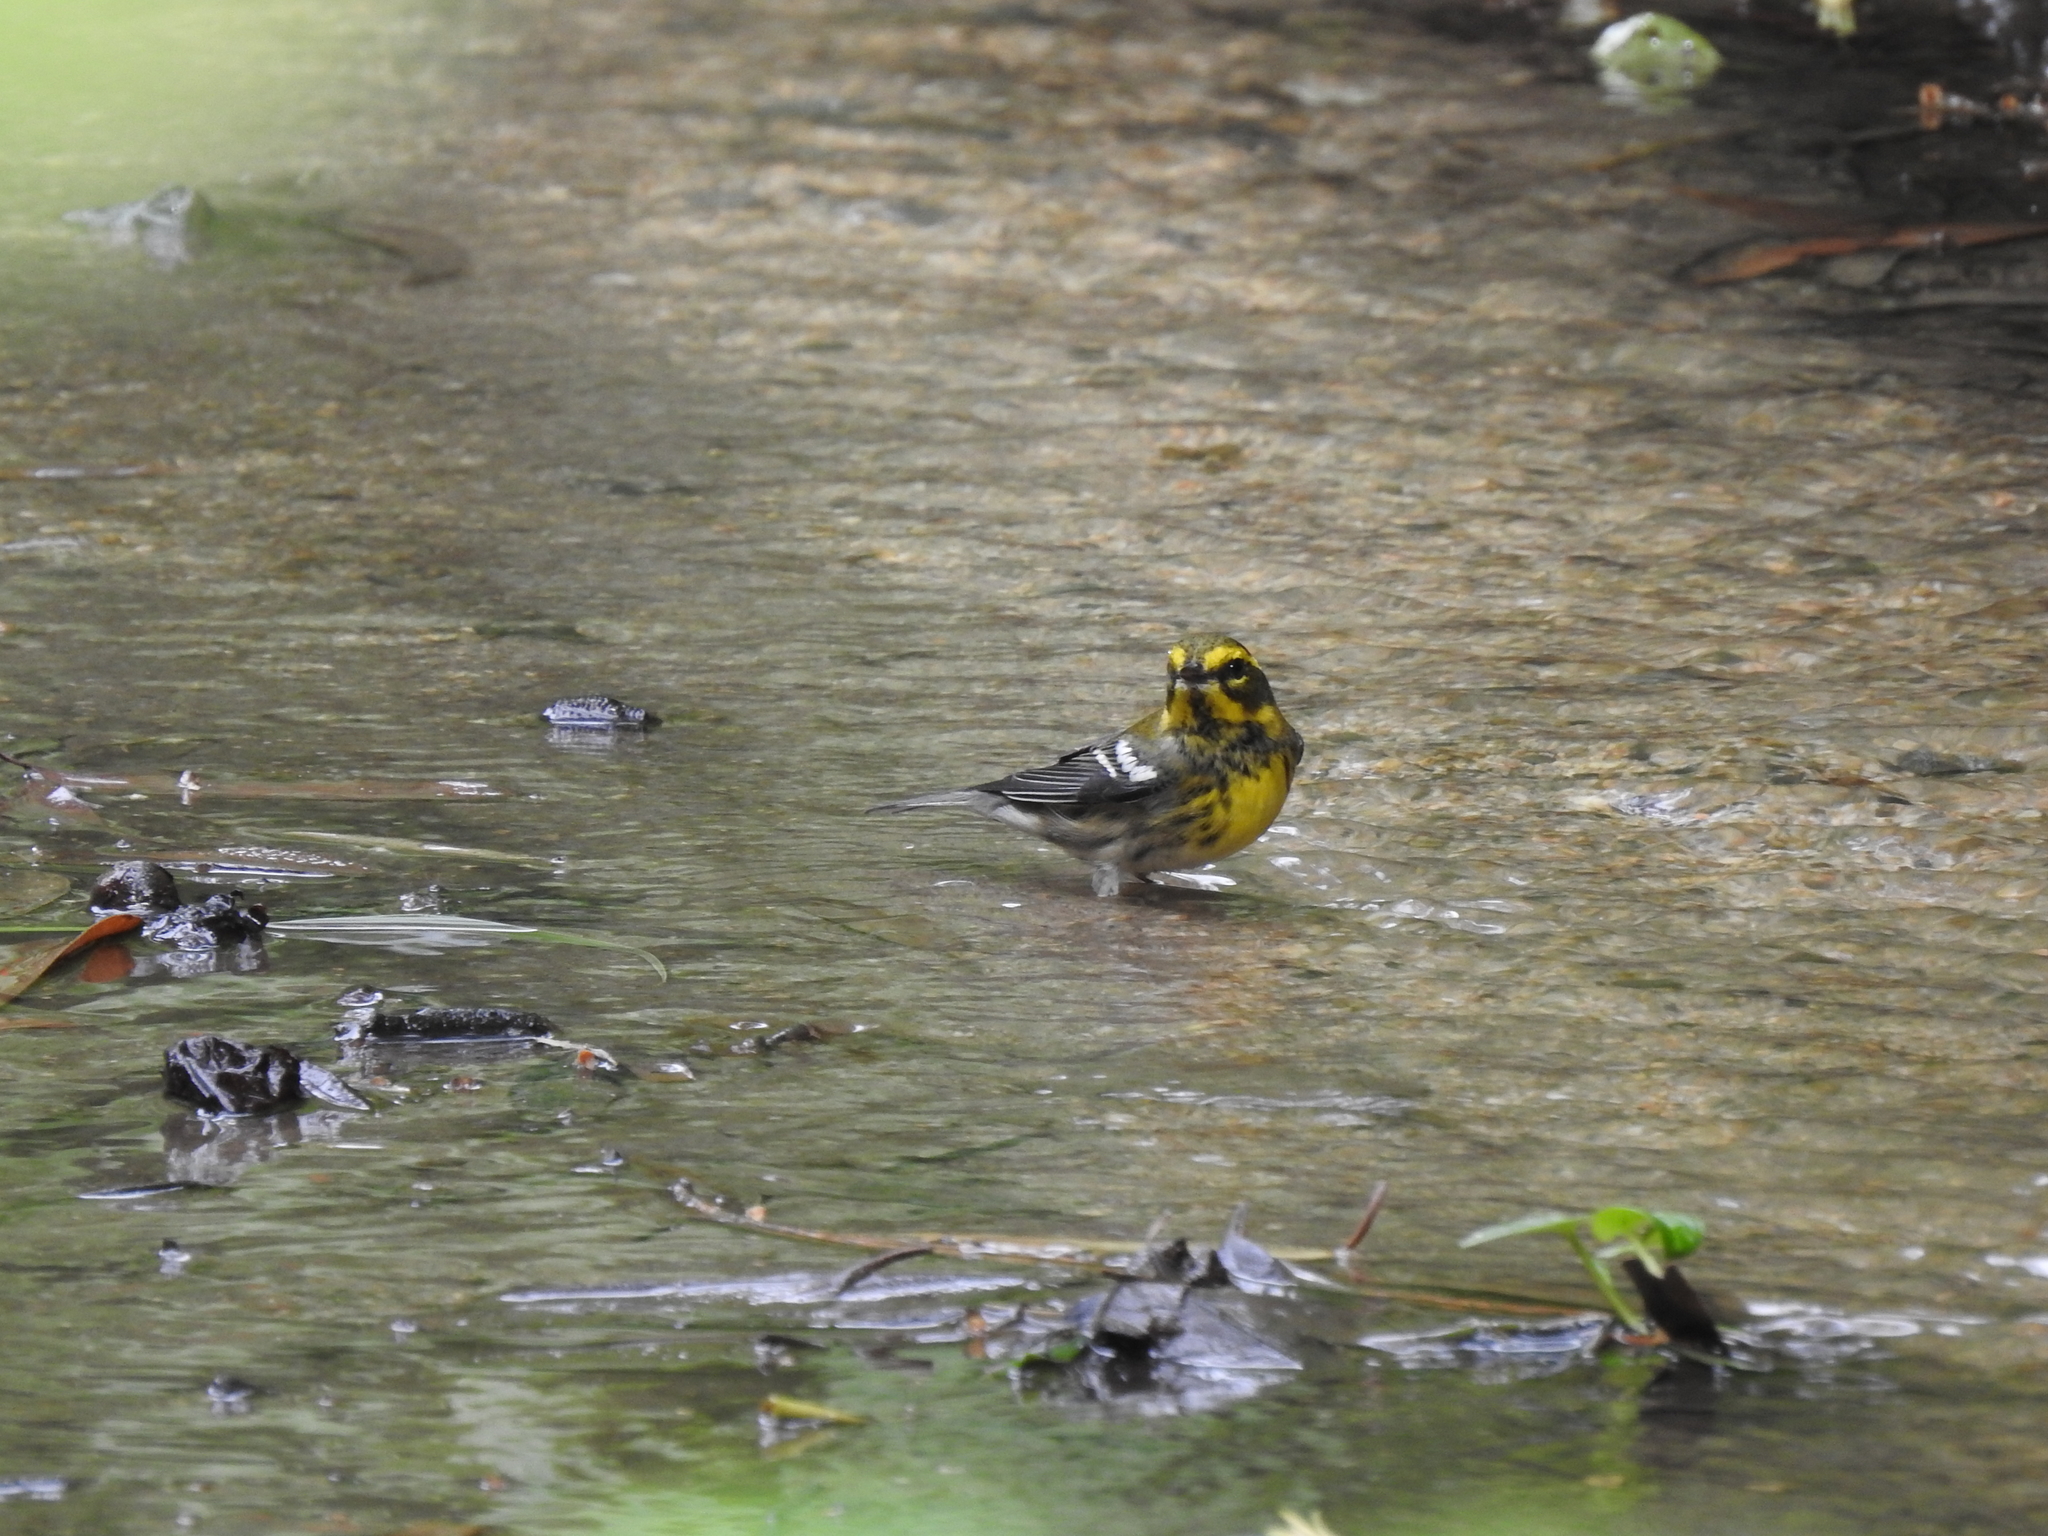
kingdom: Animalia
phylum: Chordata
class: Aves
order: Passeriformes
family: Parulidae
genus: Setophaga
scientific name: Setophaga townsendi
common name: Townsend's warbler
